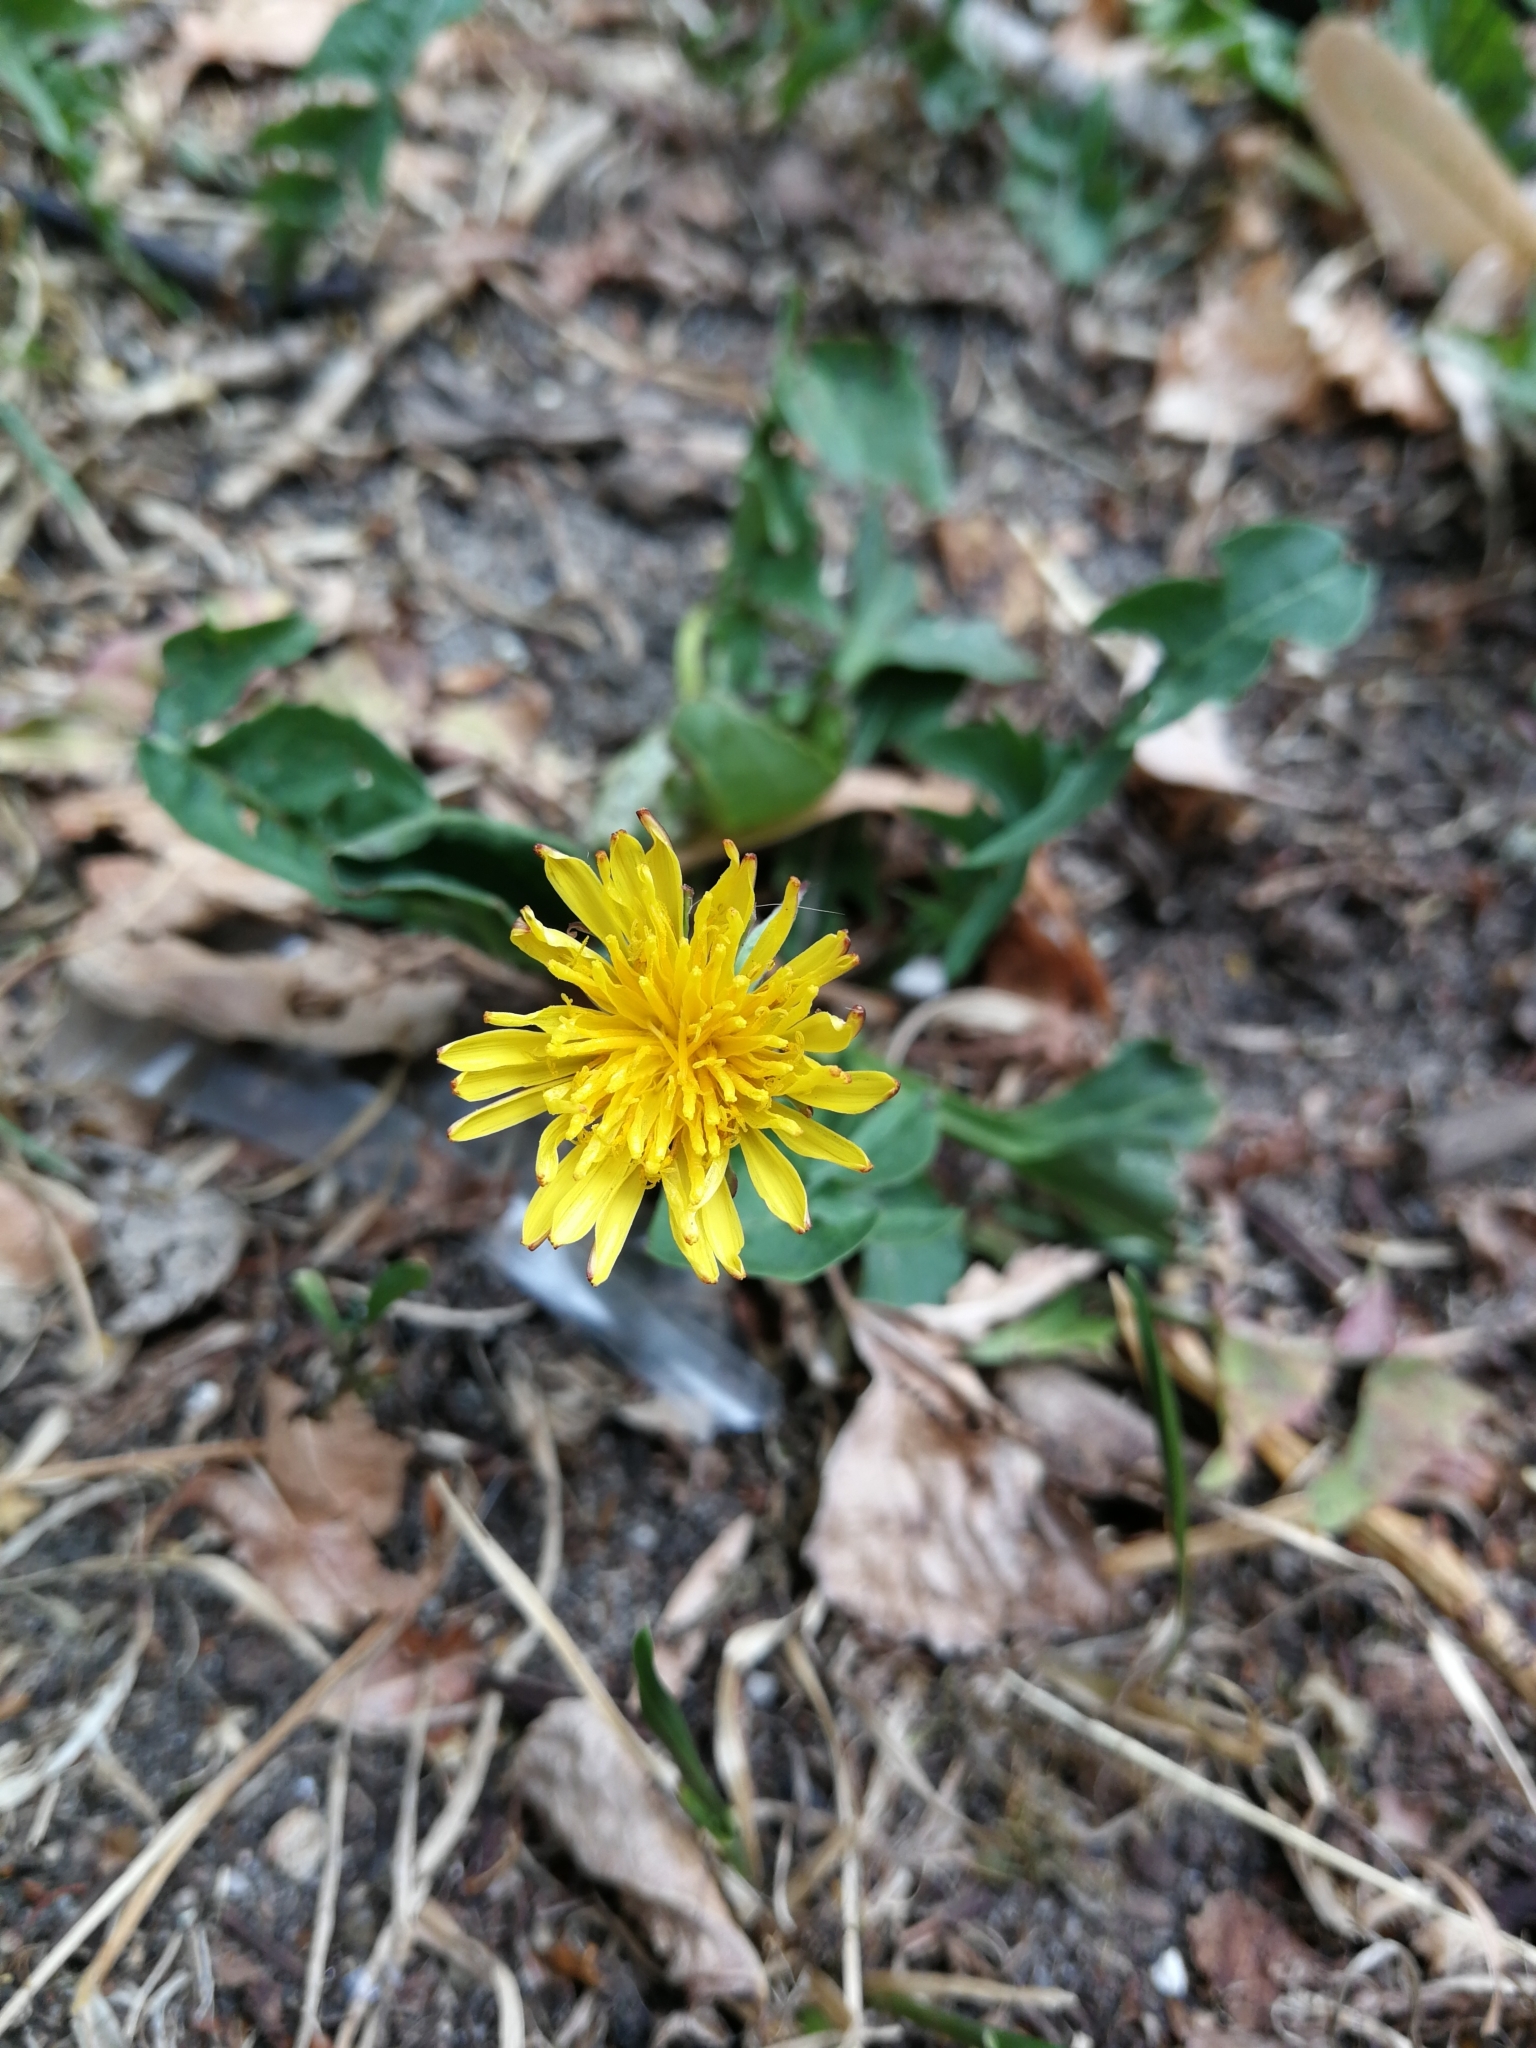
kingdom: Plantae
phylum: Tracheophyta
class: Magnoliopsida
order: Asterales
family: Asteraceae
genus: Taraxacum
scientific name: Taraxacum
